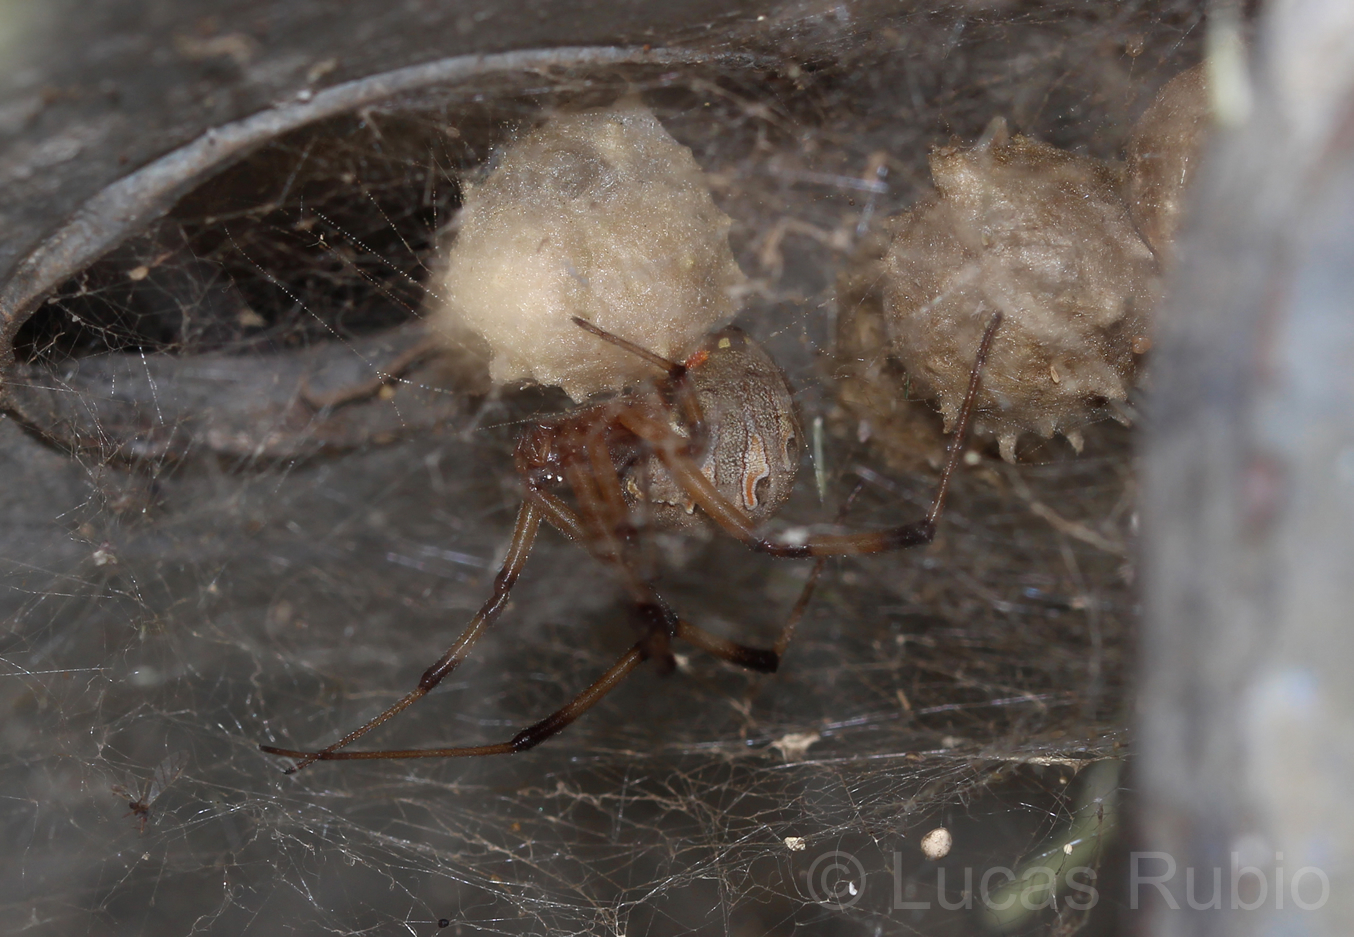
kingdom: Animalia
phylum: Arthropoda
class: Arachnida
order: Araneae
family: Theridiidae
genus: Latrodectus
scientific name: Latrodectus geometricus
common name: Brown widow spider
